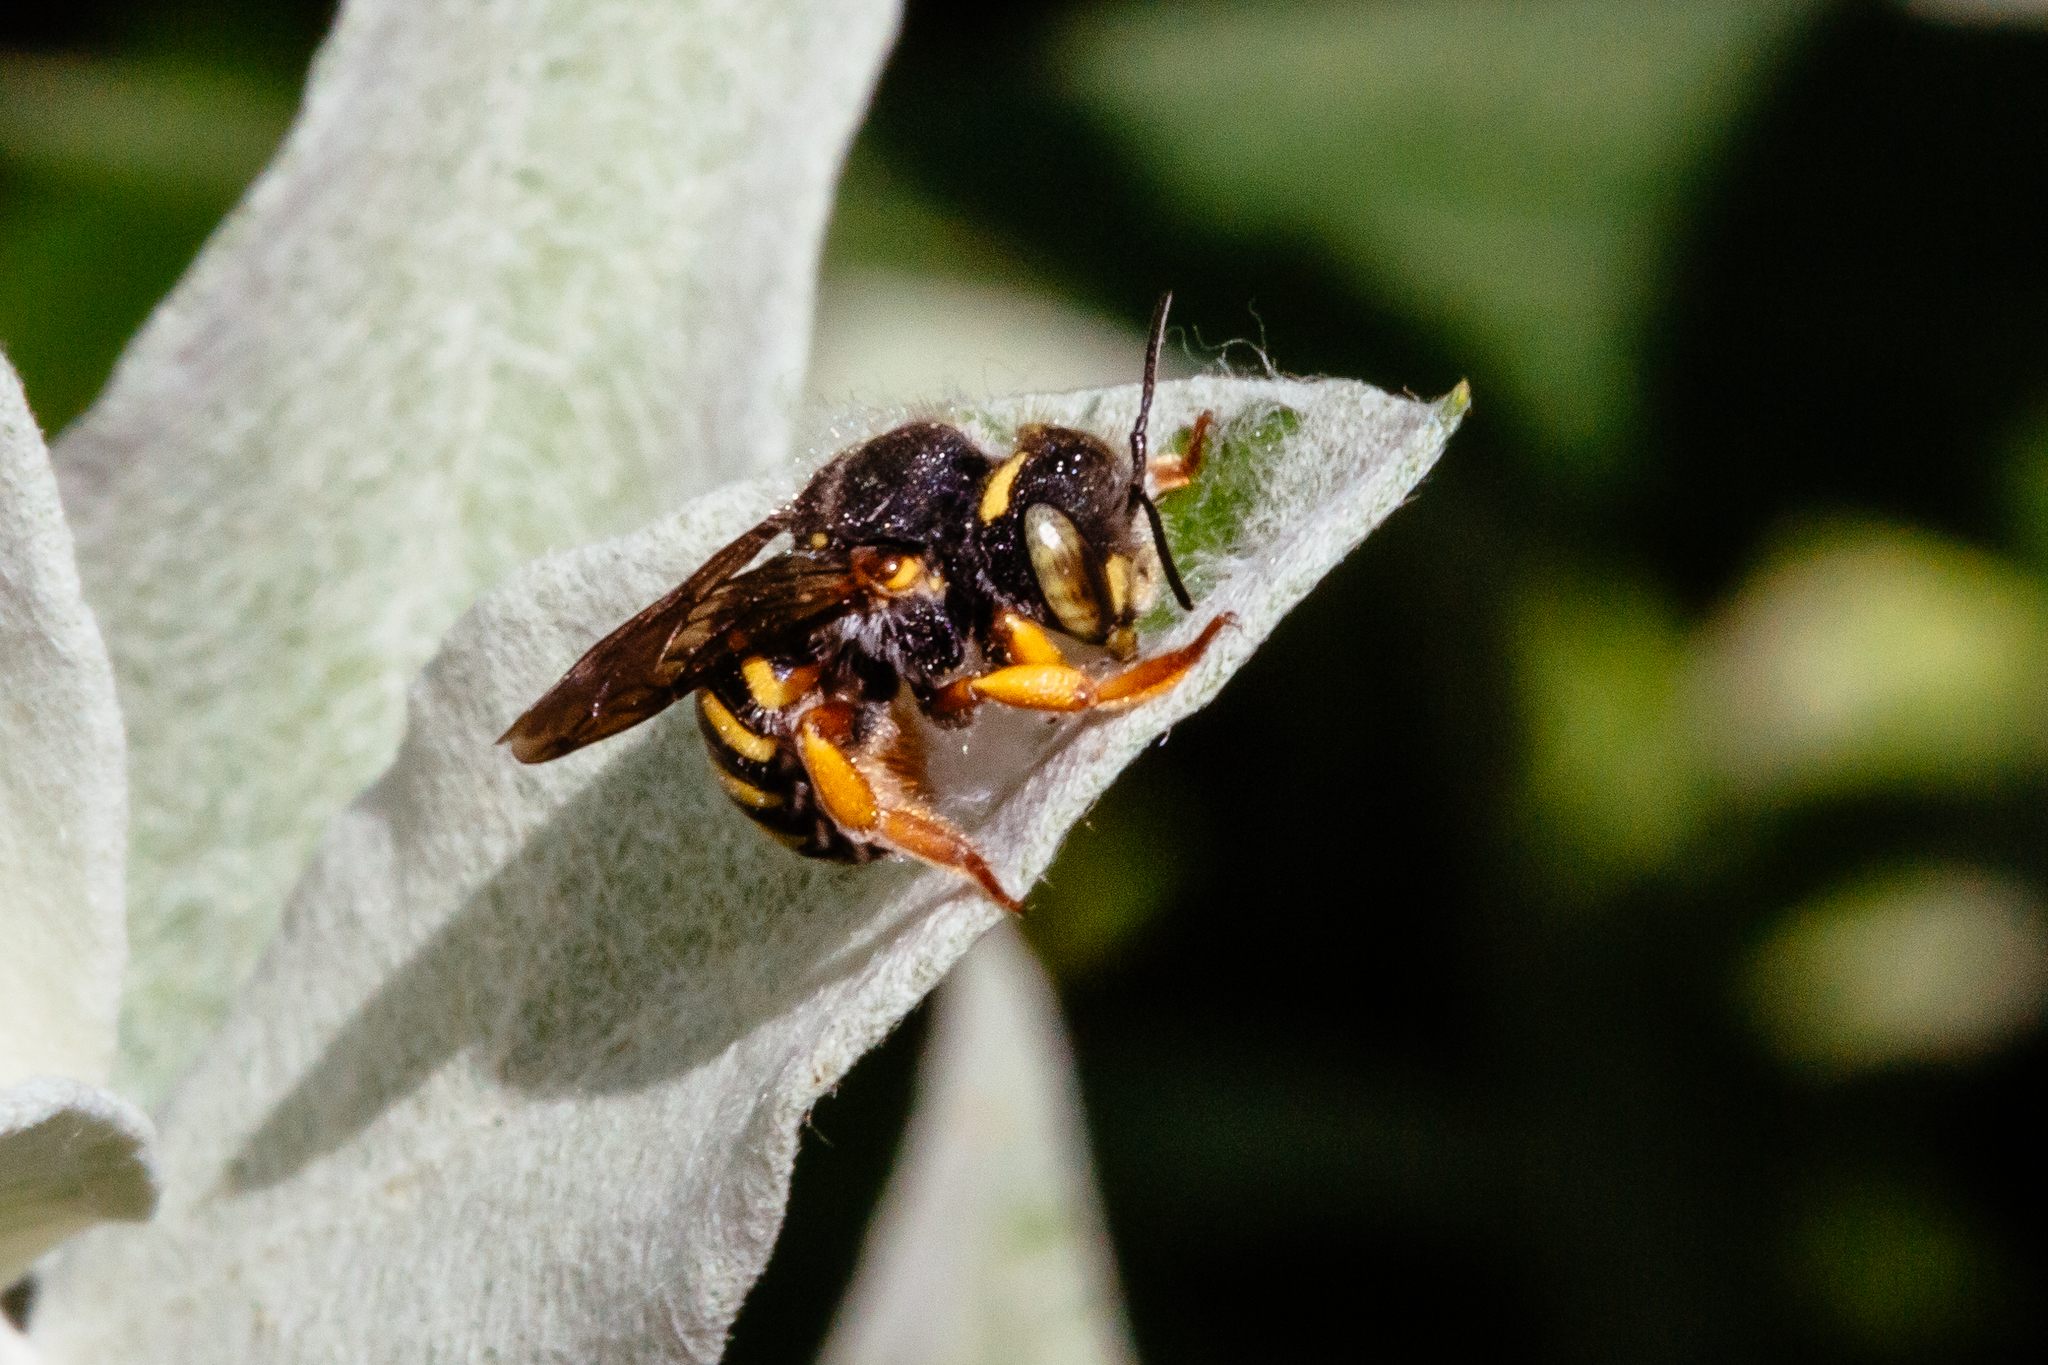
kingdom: Animalia
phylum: Arthropoda
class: Insecta
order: Hymenoptera
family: Megachilidae
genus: Anthidium
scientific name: Anthidium oblongatum
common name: Oblong wool carder bee
